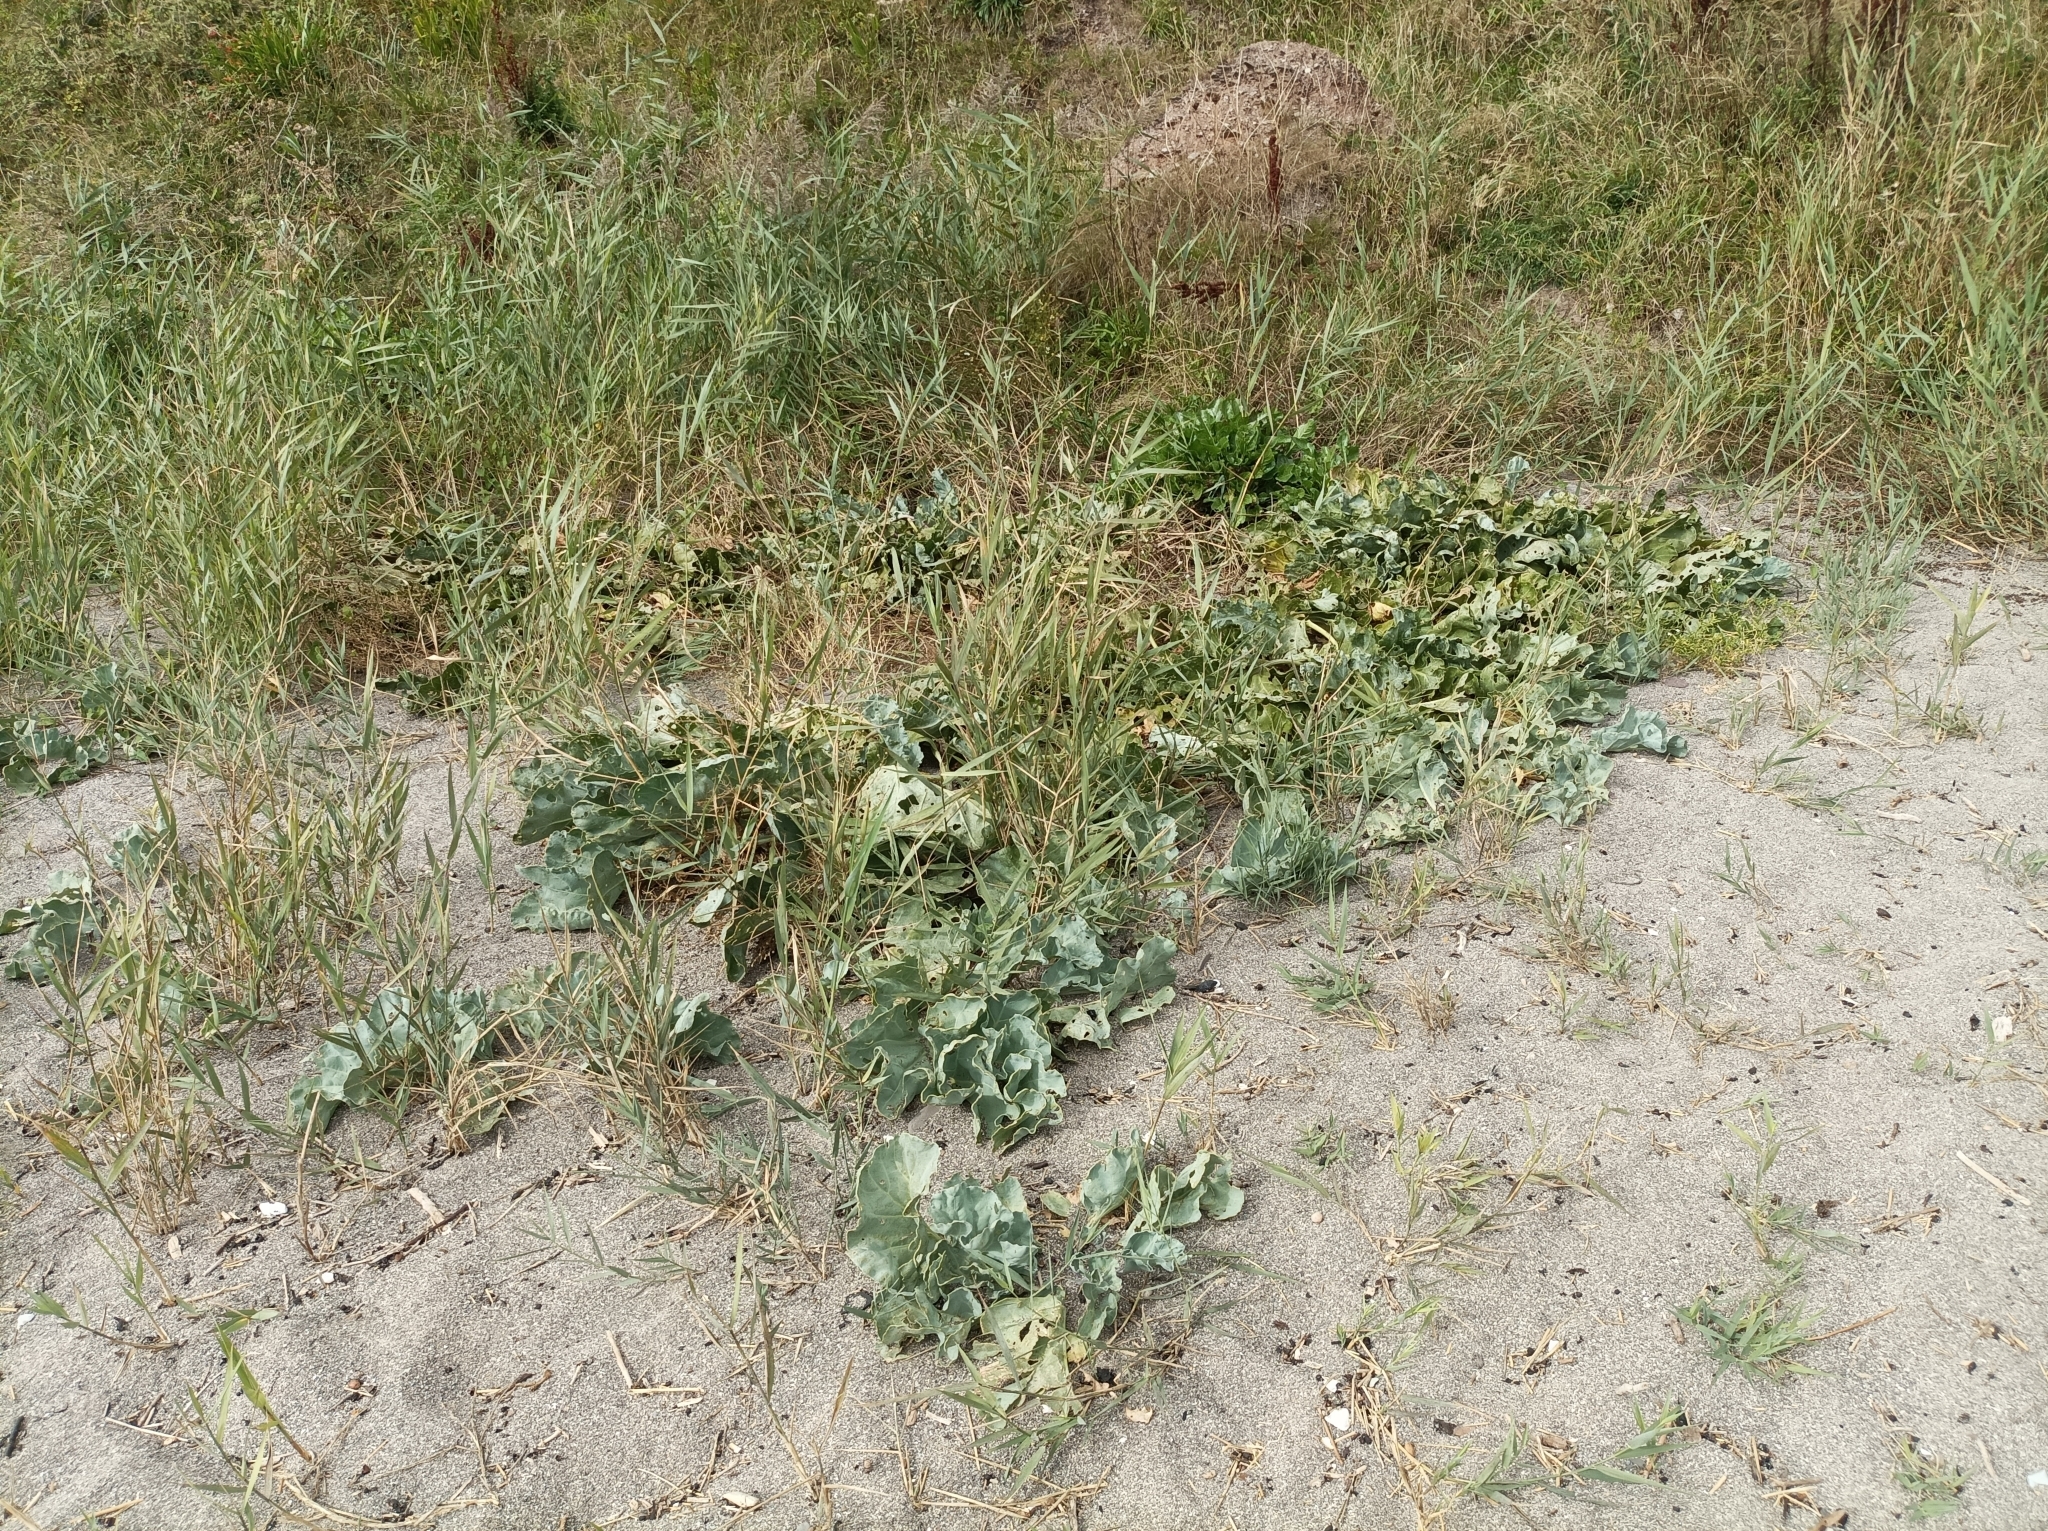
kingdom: Plantae
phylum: Tracheophyta
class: Magnoliopsida
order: Brassicales
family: Brassicaceae
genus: Crambe
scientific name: Crambe maritima
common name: Sea-kale
